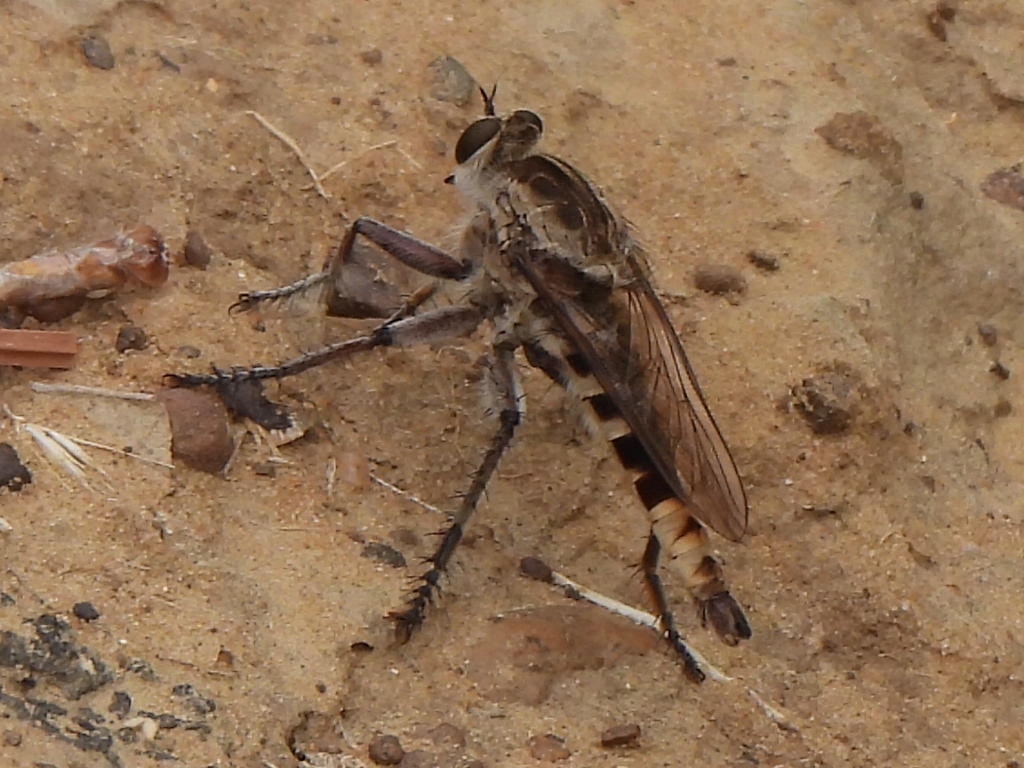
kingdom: Animalia
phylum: Arthropoda
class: Insecta
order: Diptera
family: Asilidae
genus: Triorla
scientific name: Triorla interrupta
